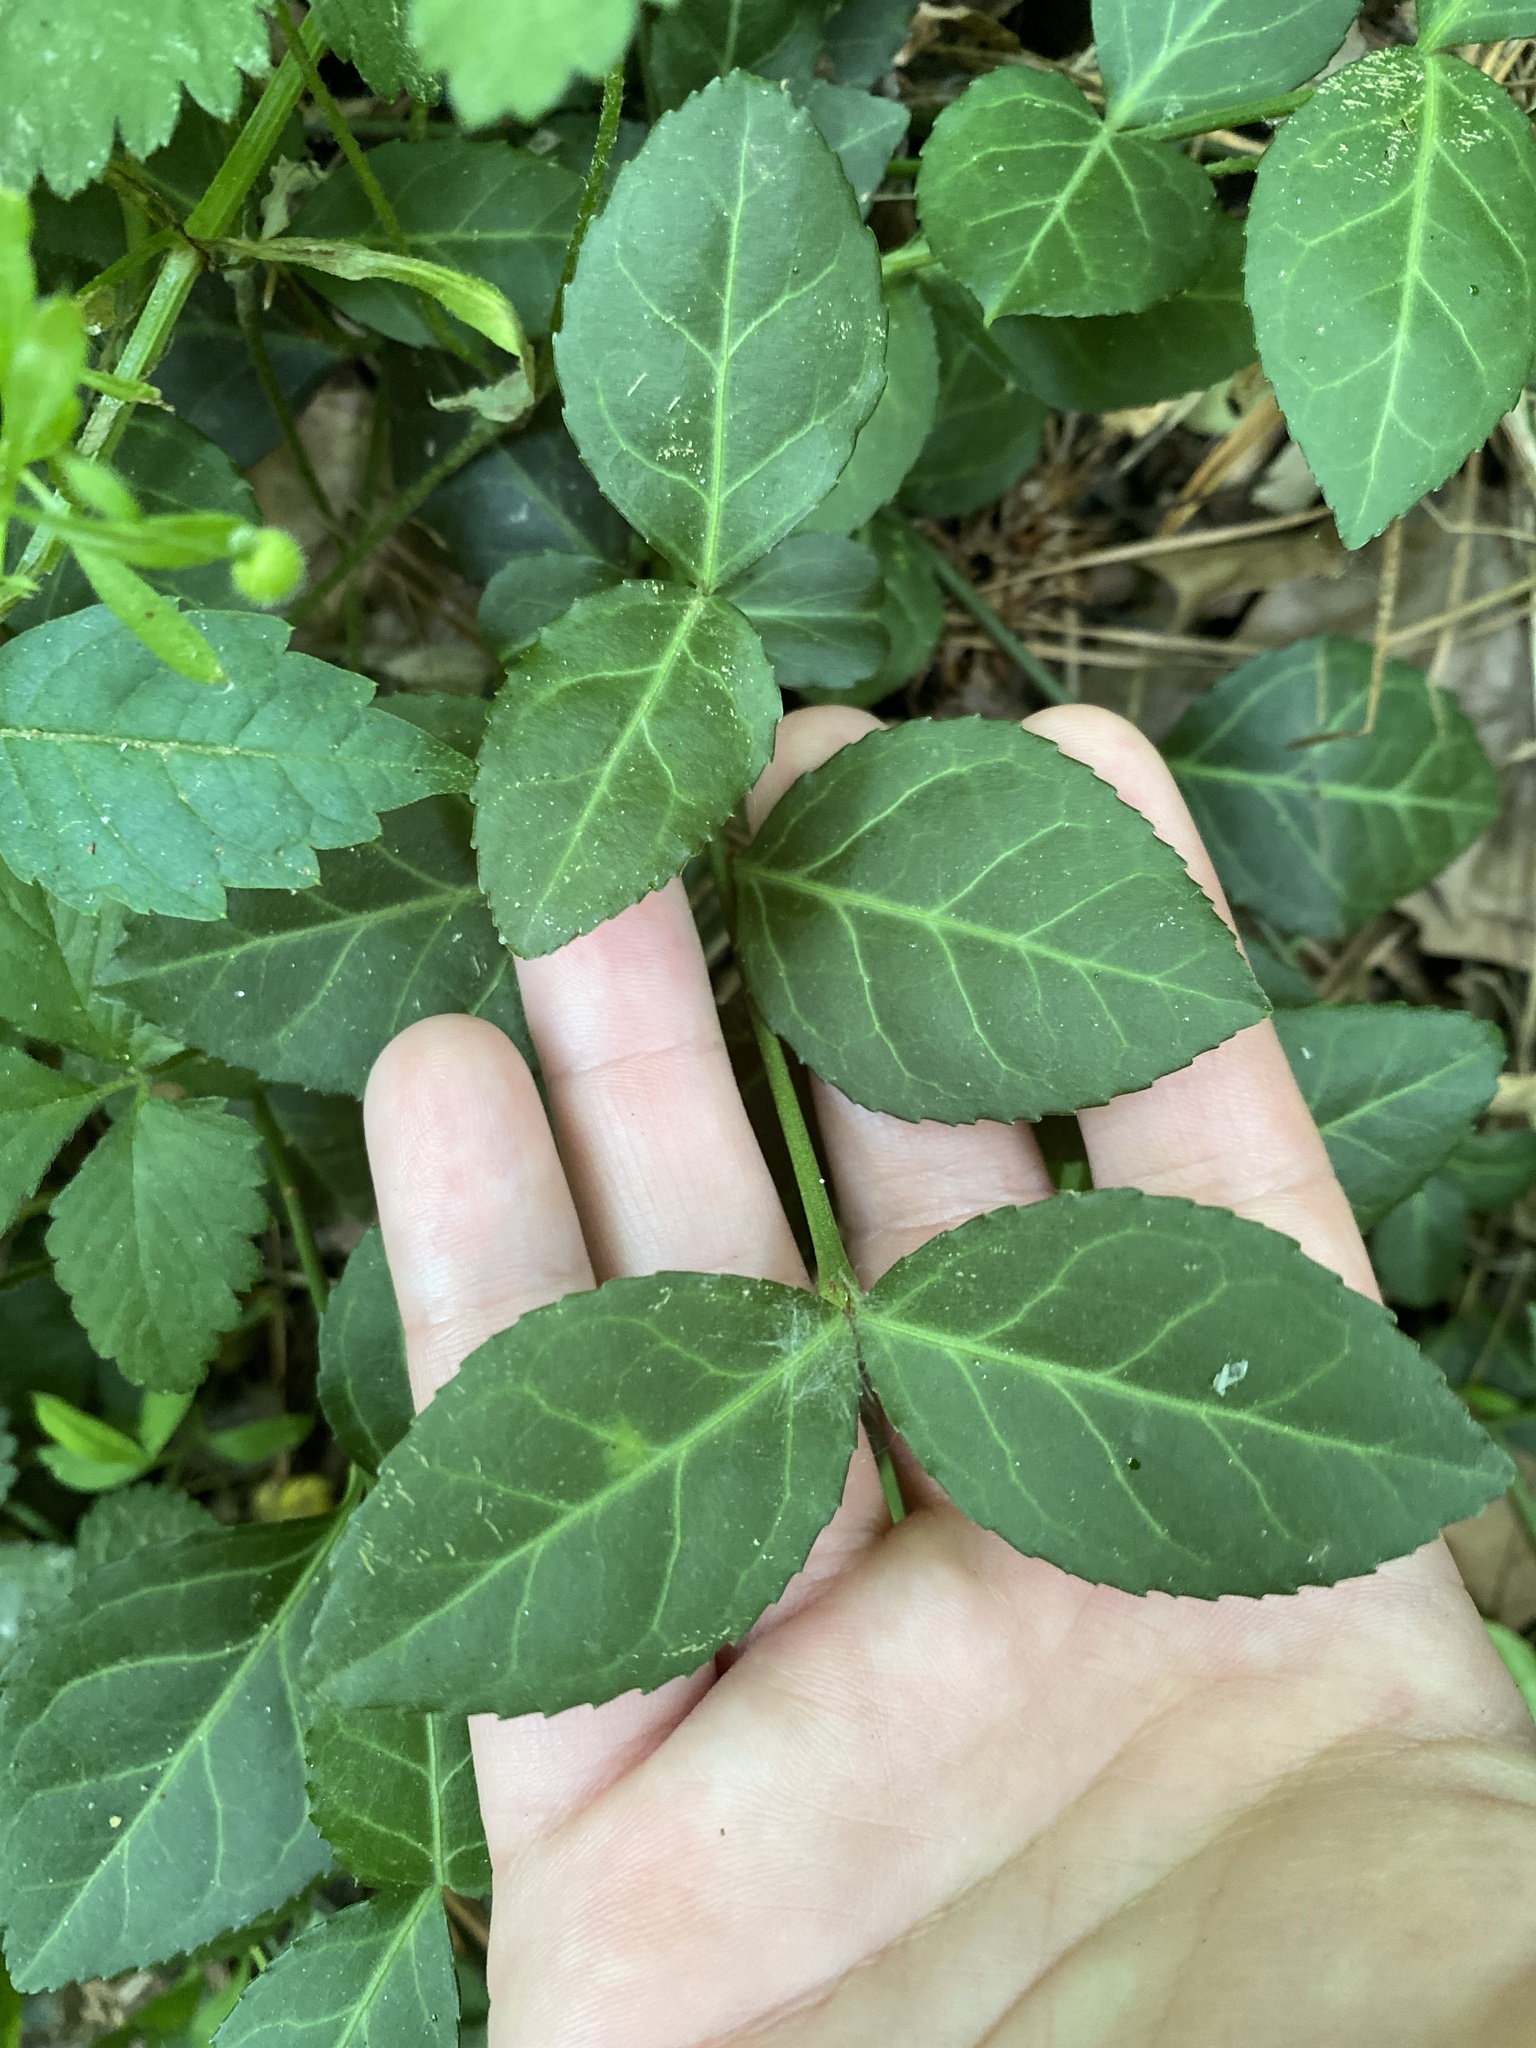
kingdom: Plantae
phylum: Tracheophyta
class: Magnoliopsida
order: Celastrales
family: Celastraceae
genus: Euonymus
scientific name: Euonymus fortunei
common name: Climbing euonymus
